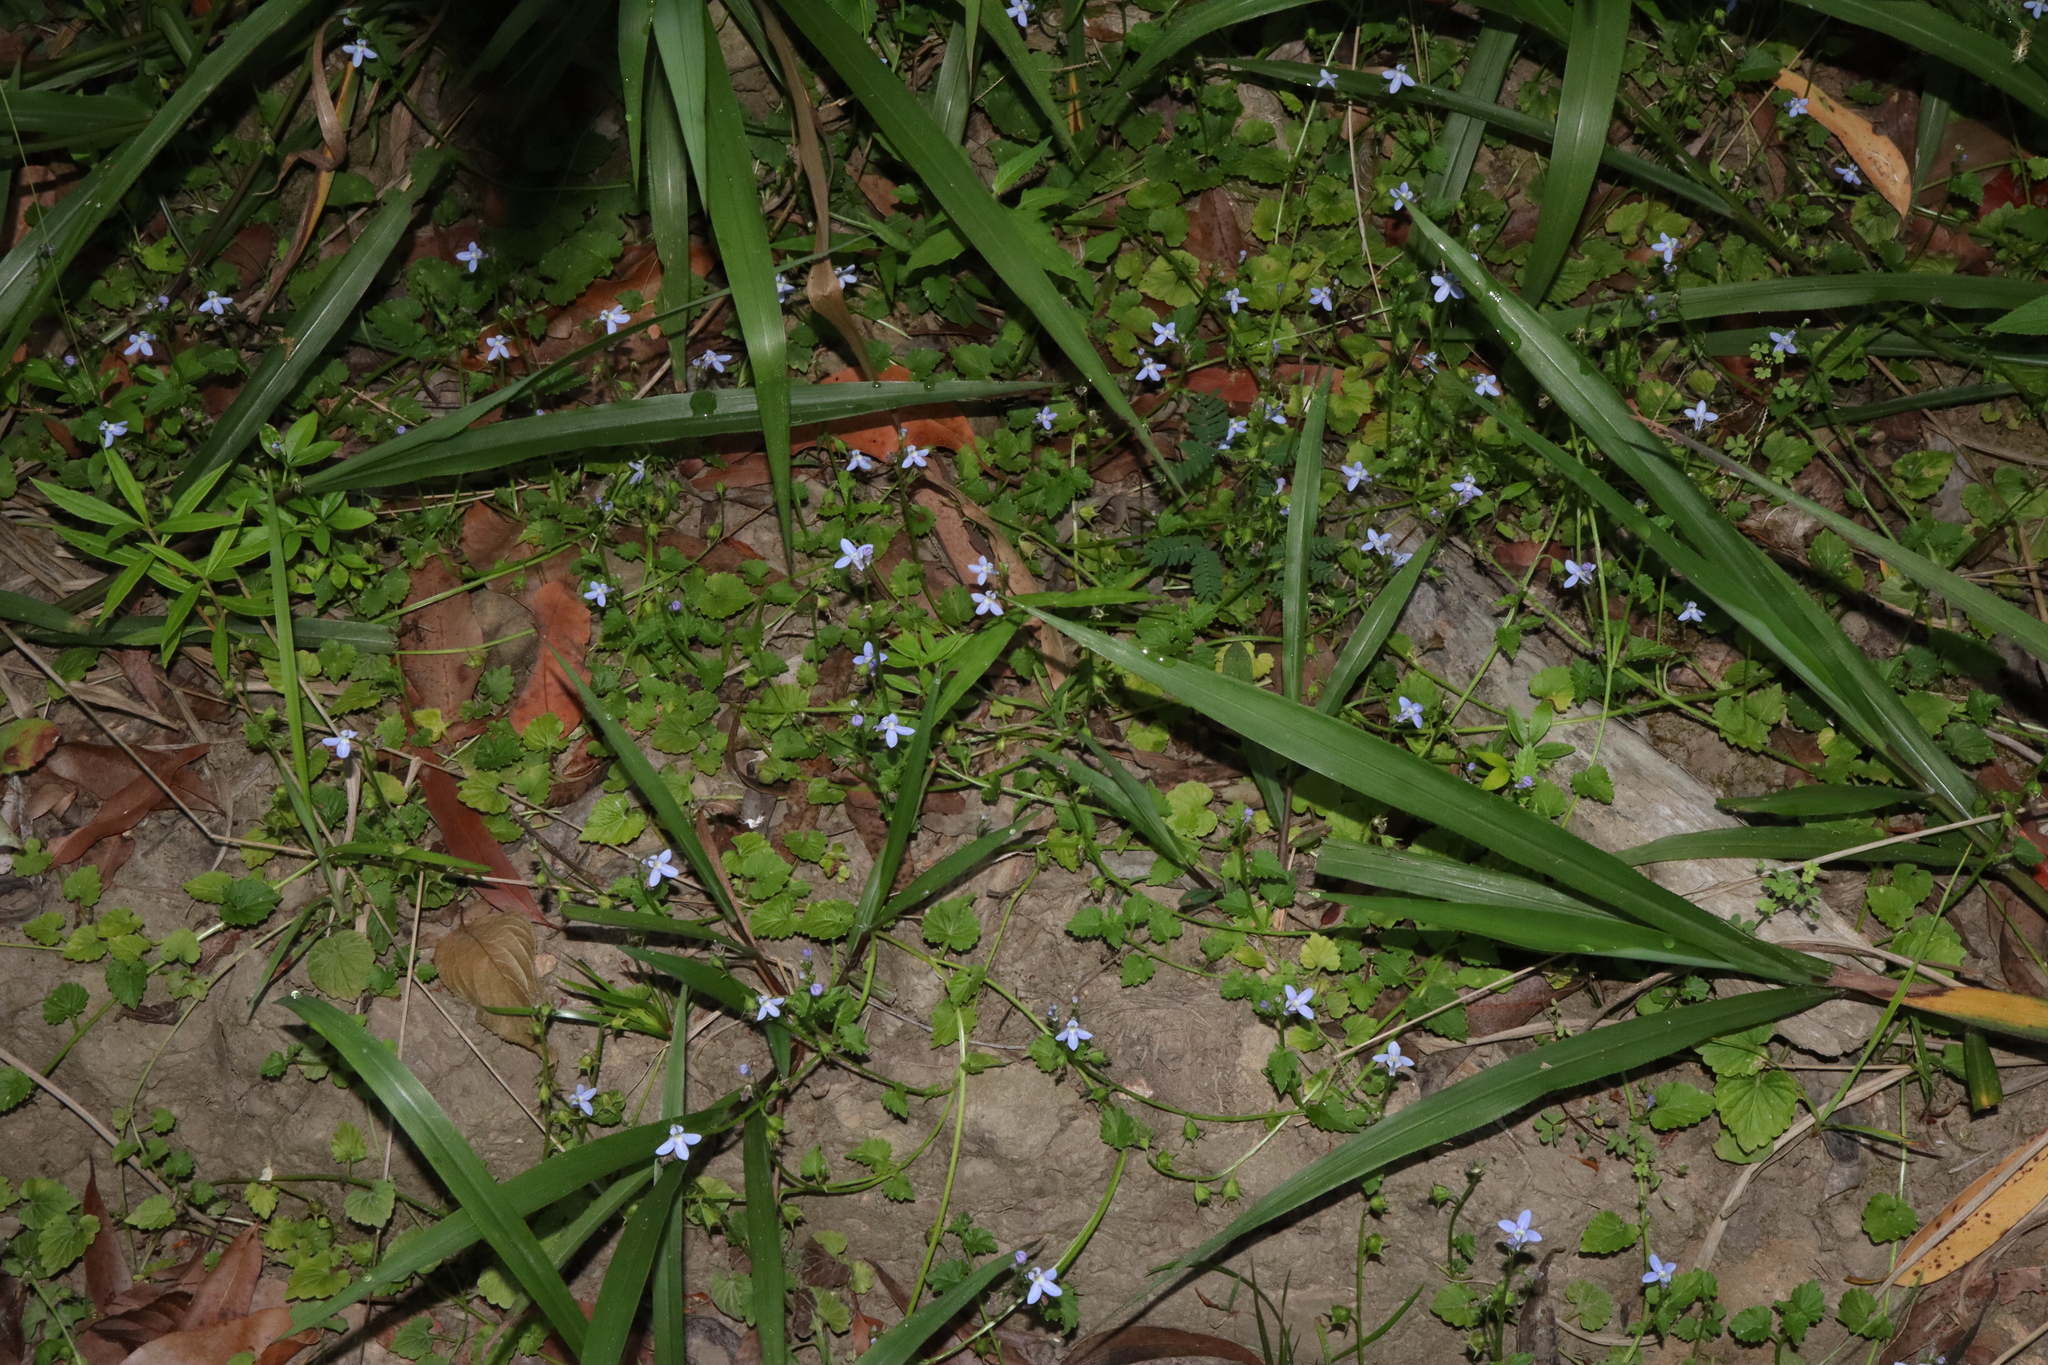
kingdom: Plantae
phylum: Tracheophyta
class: Magnoliopsida
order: Asterales
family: Campanulaceae
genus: Lobelia
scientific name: Lobelia trigonocaulis
